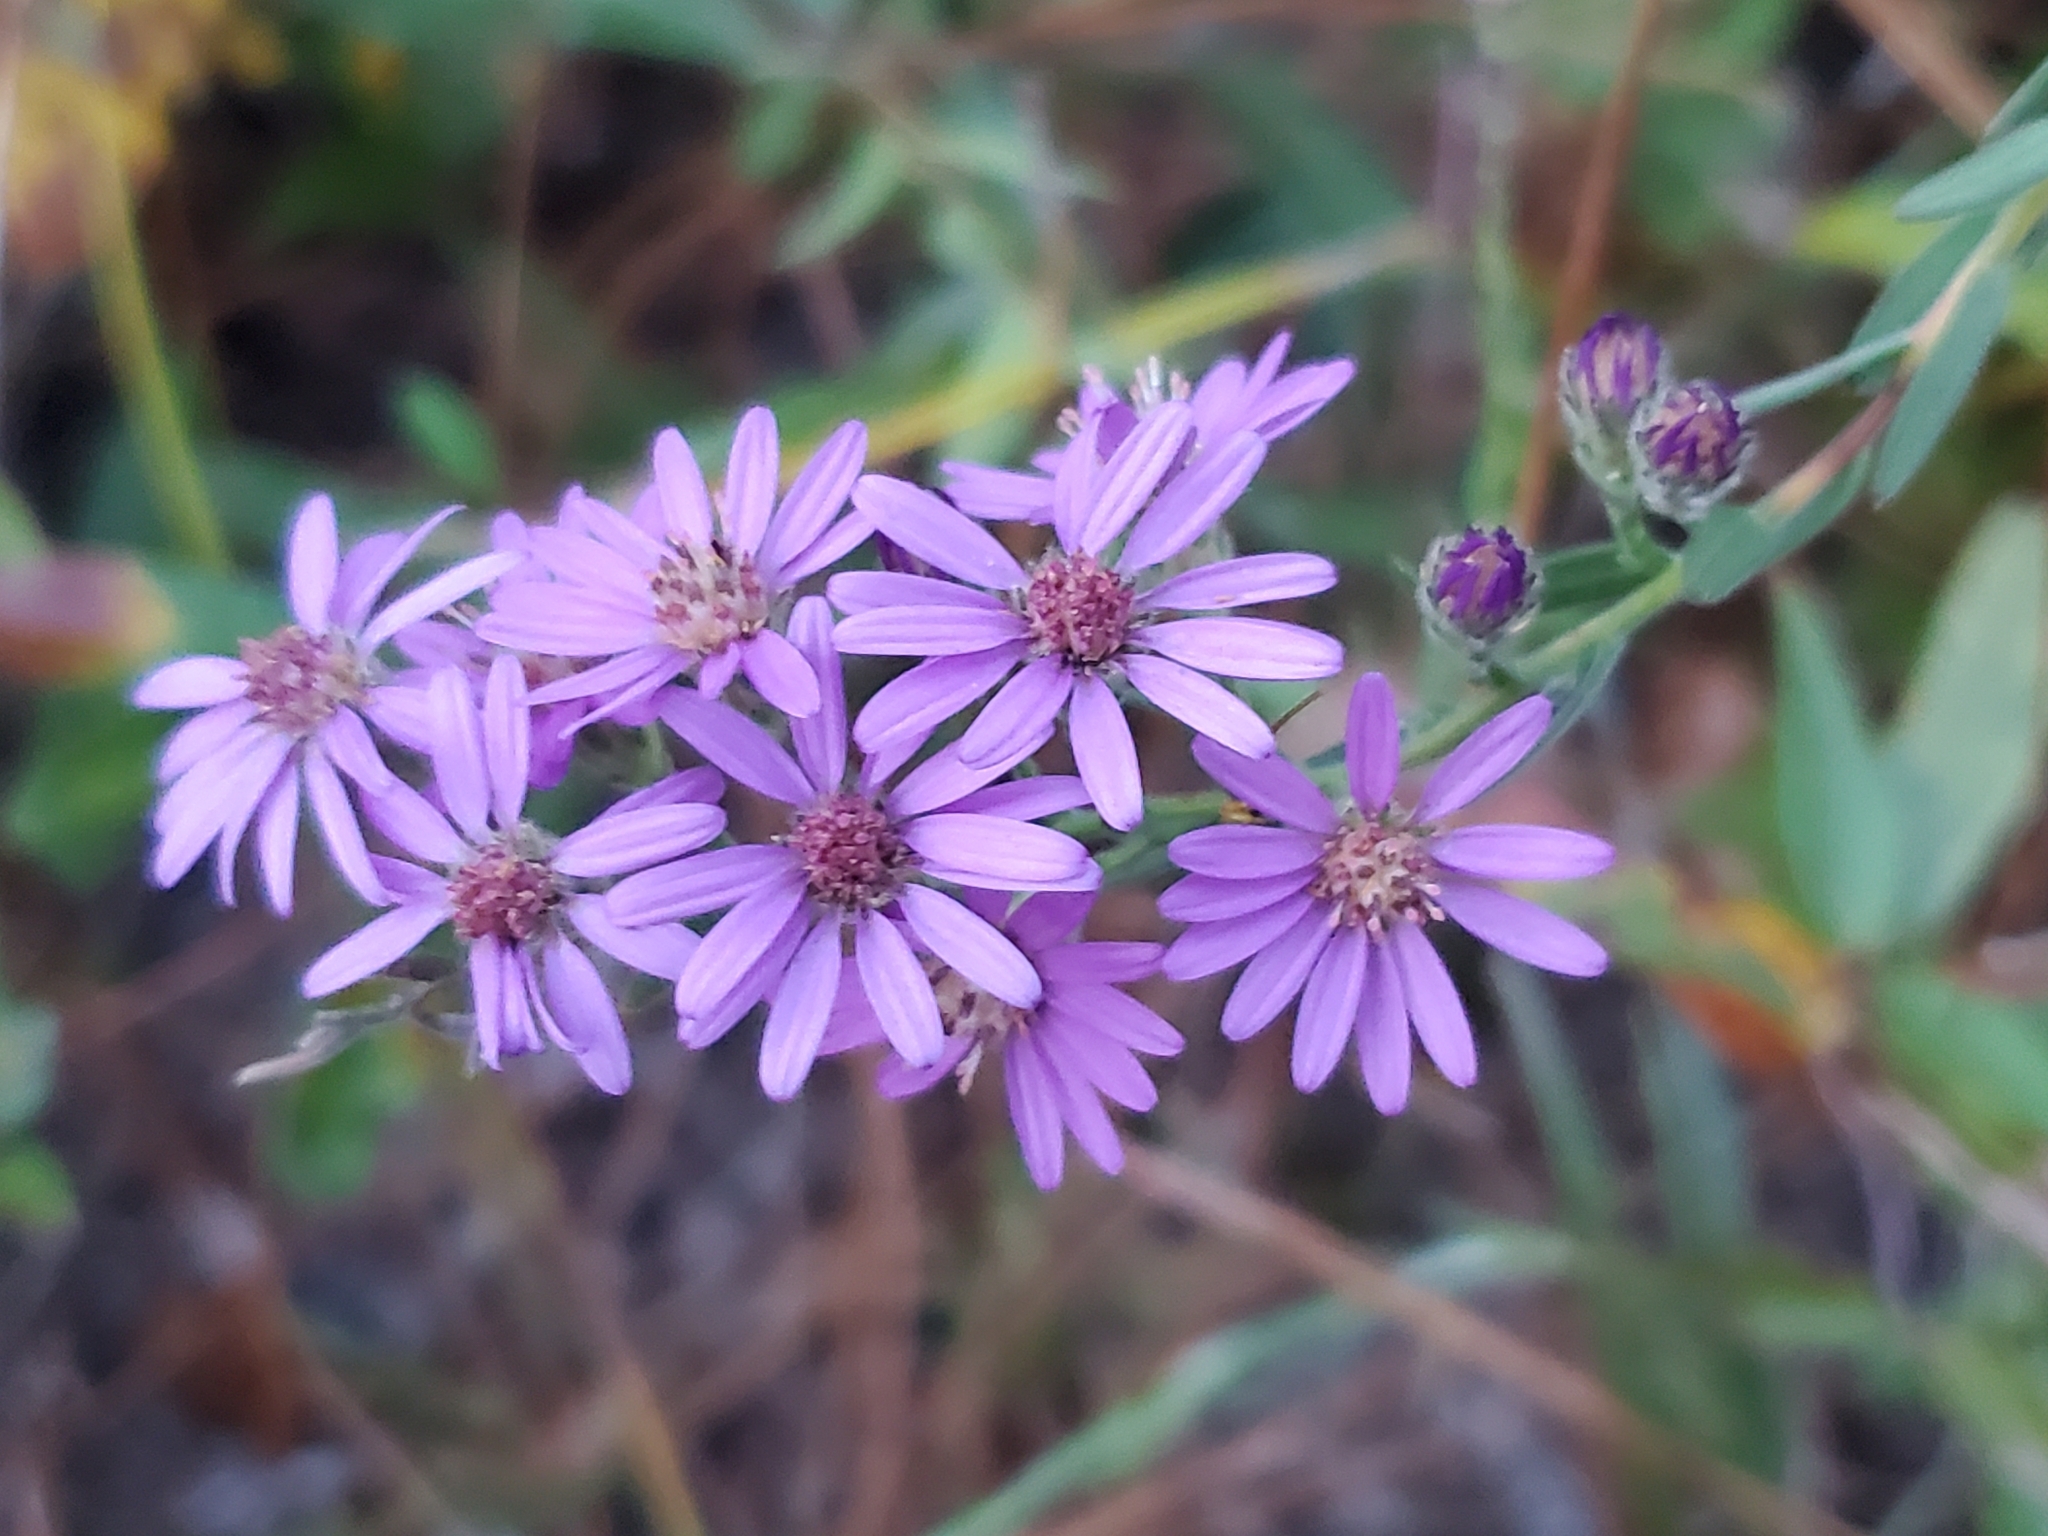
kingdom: Plantae
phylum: Tracheophyta
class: Magnoliopsida
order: Asterales
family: Asteraceae
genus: Symphyotrichum
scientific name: Symphyotrichum concolor
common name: Eastern silver aster
